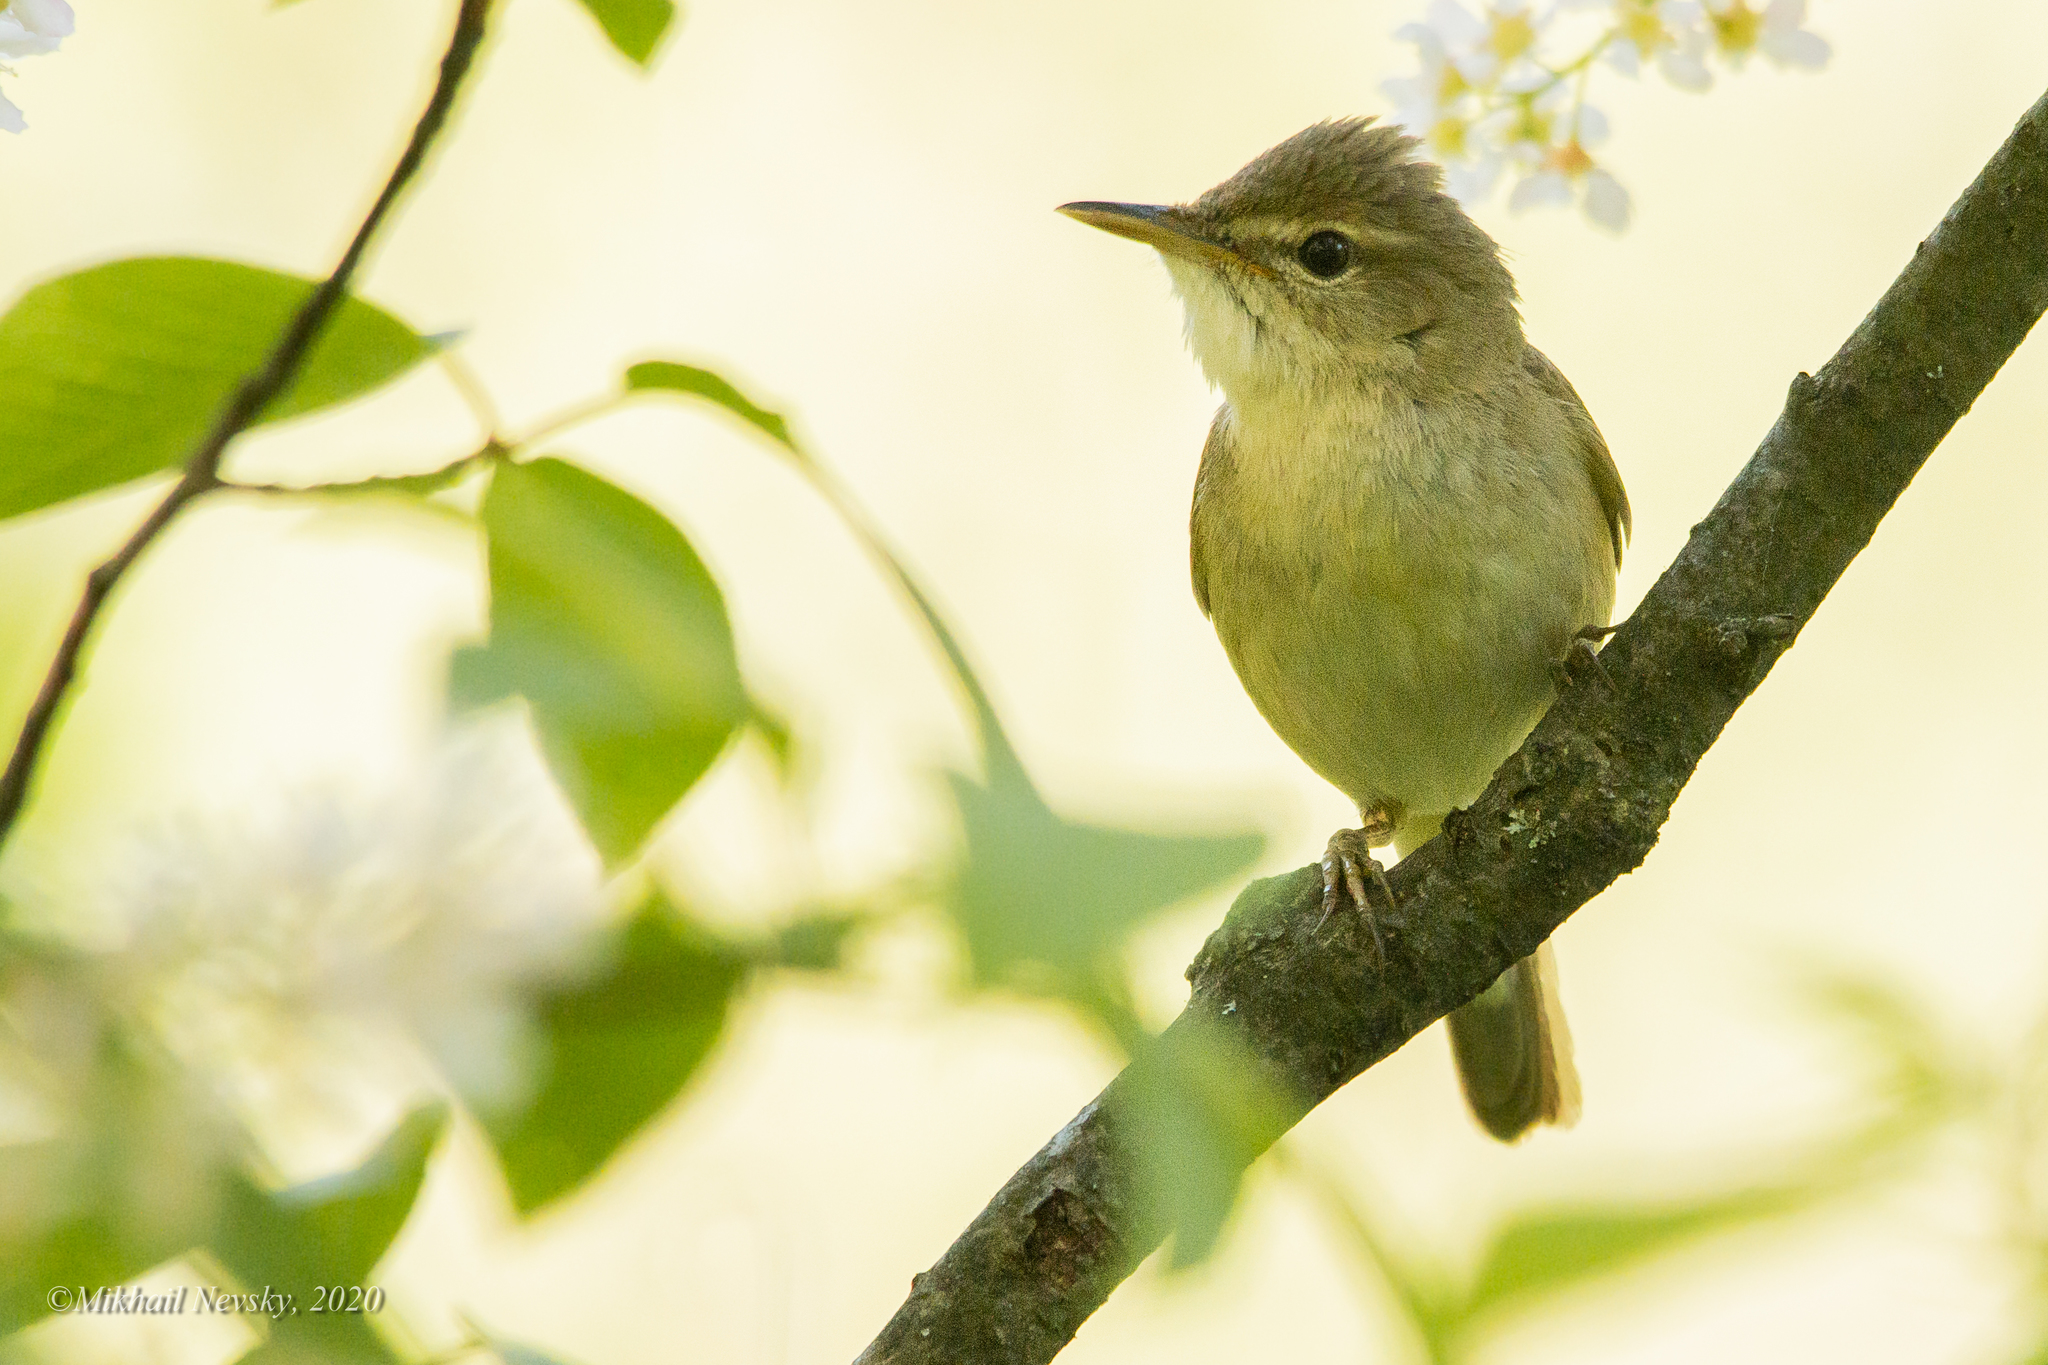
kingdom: Animalia
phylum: Chordata
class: Aves
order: Passeriformes
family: Acrocephalidae
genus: Acrocephalus
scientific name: Acrocephalus dumetorum
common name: Blyth's reed warbler
